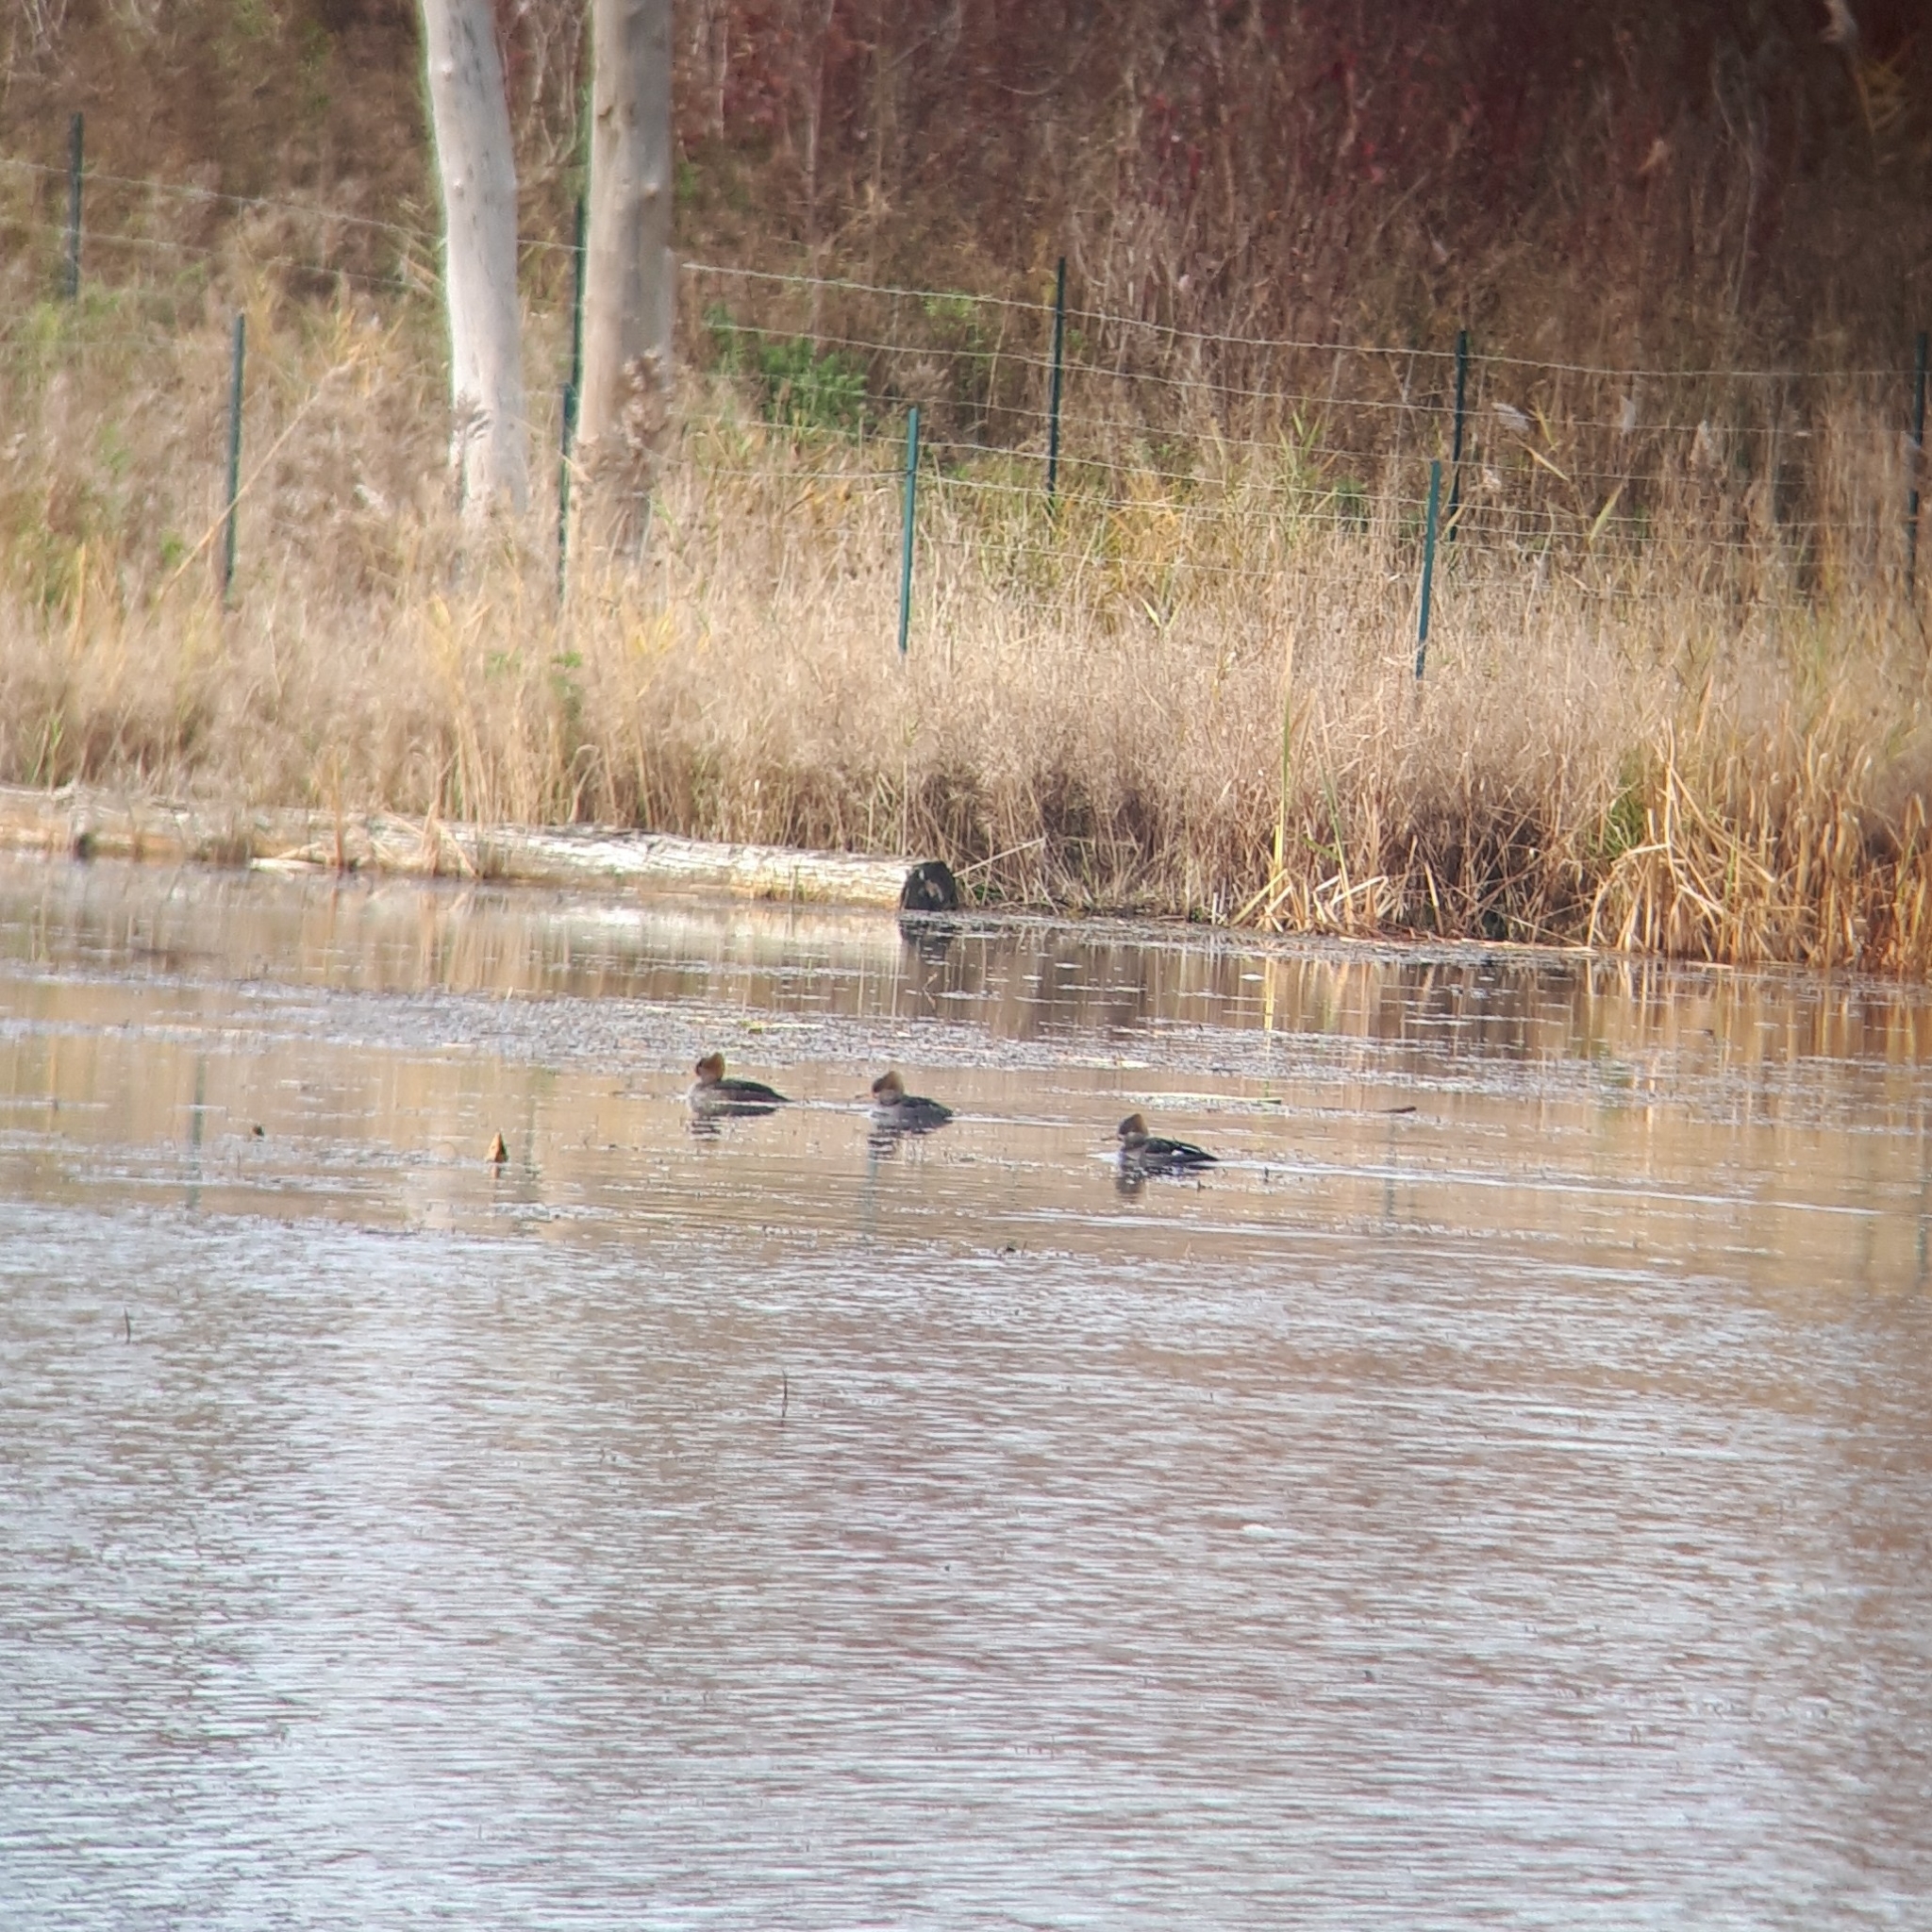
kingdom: Animalia
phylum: Chordata
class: Aves
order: Anseriformes
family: Anatidae
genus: Lophodytes
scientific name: Lophodytes cucullatus
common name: Hooded merganser
